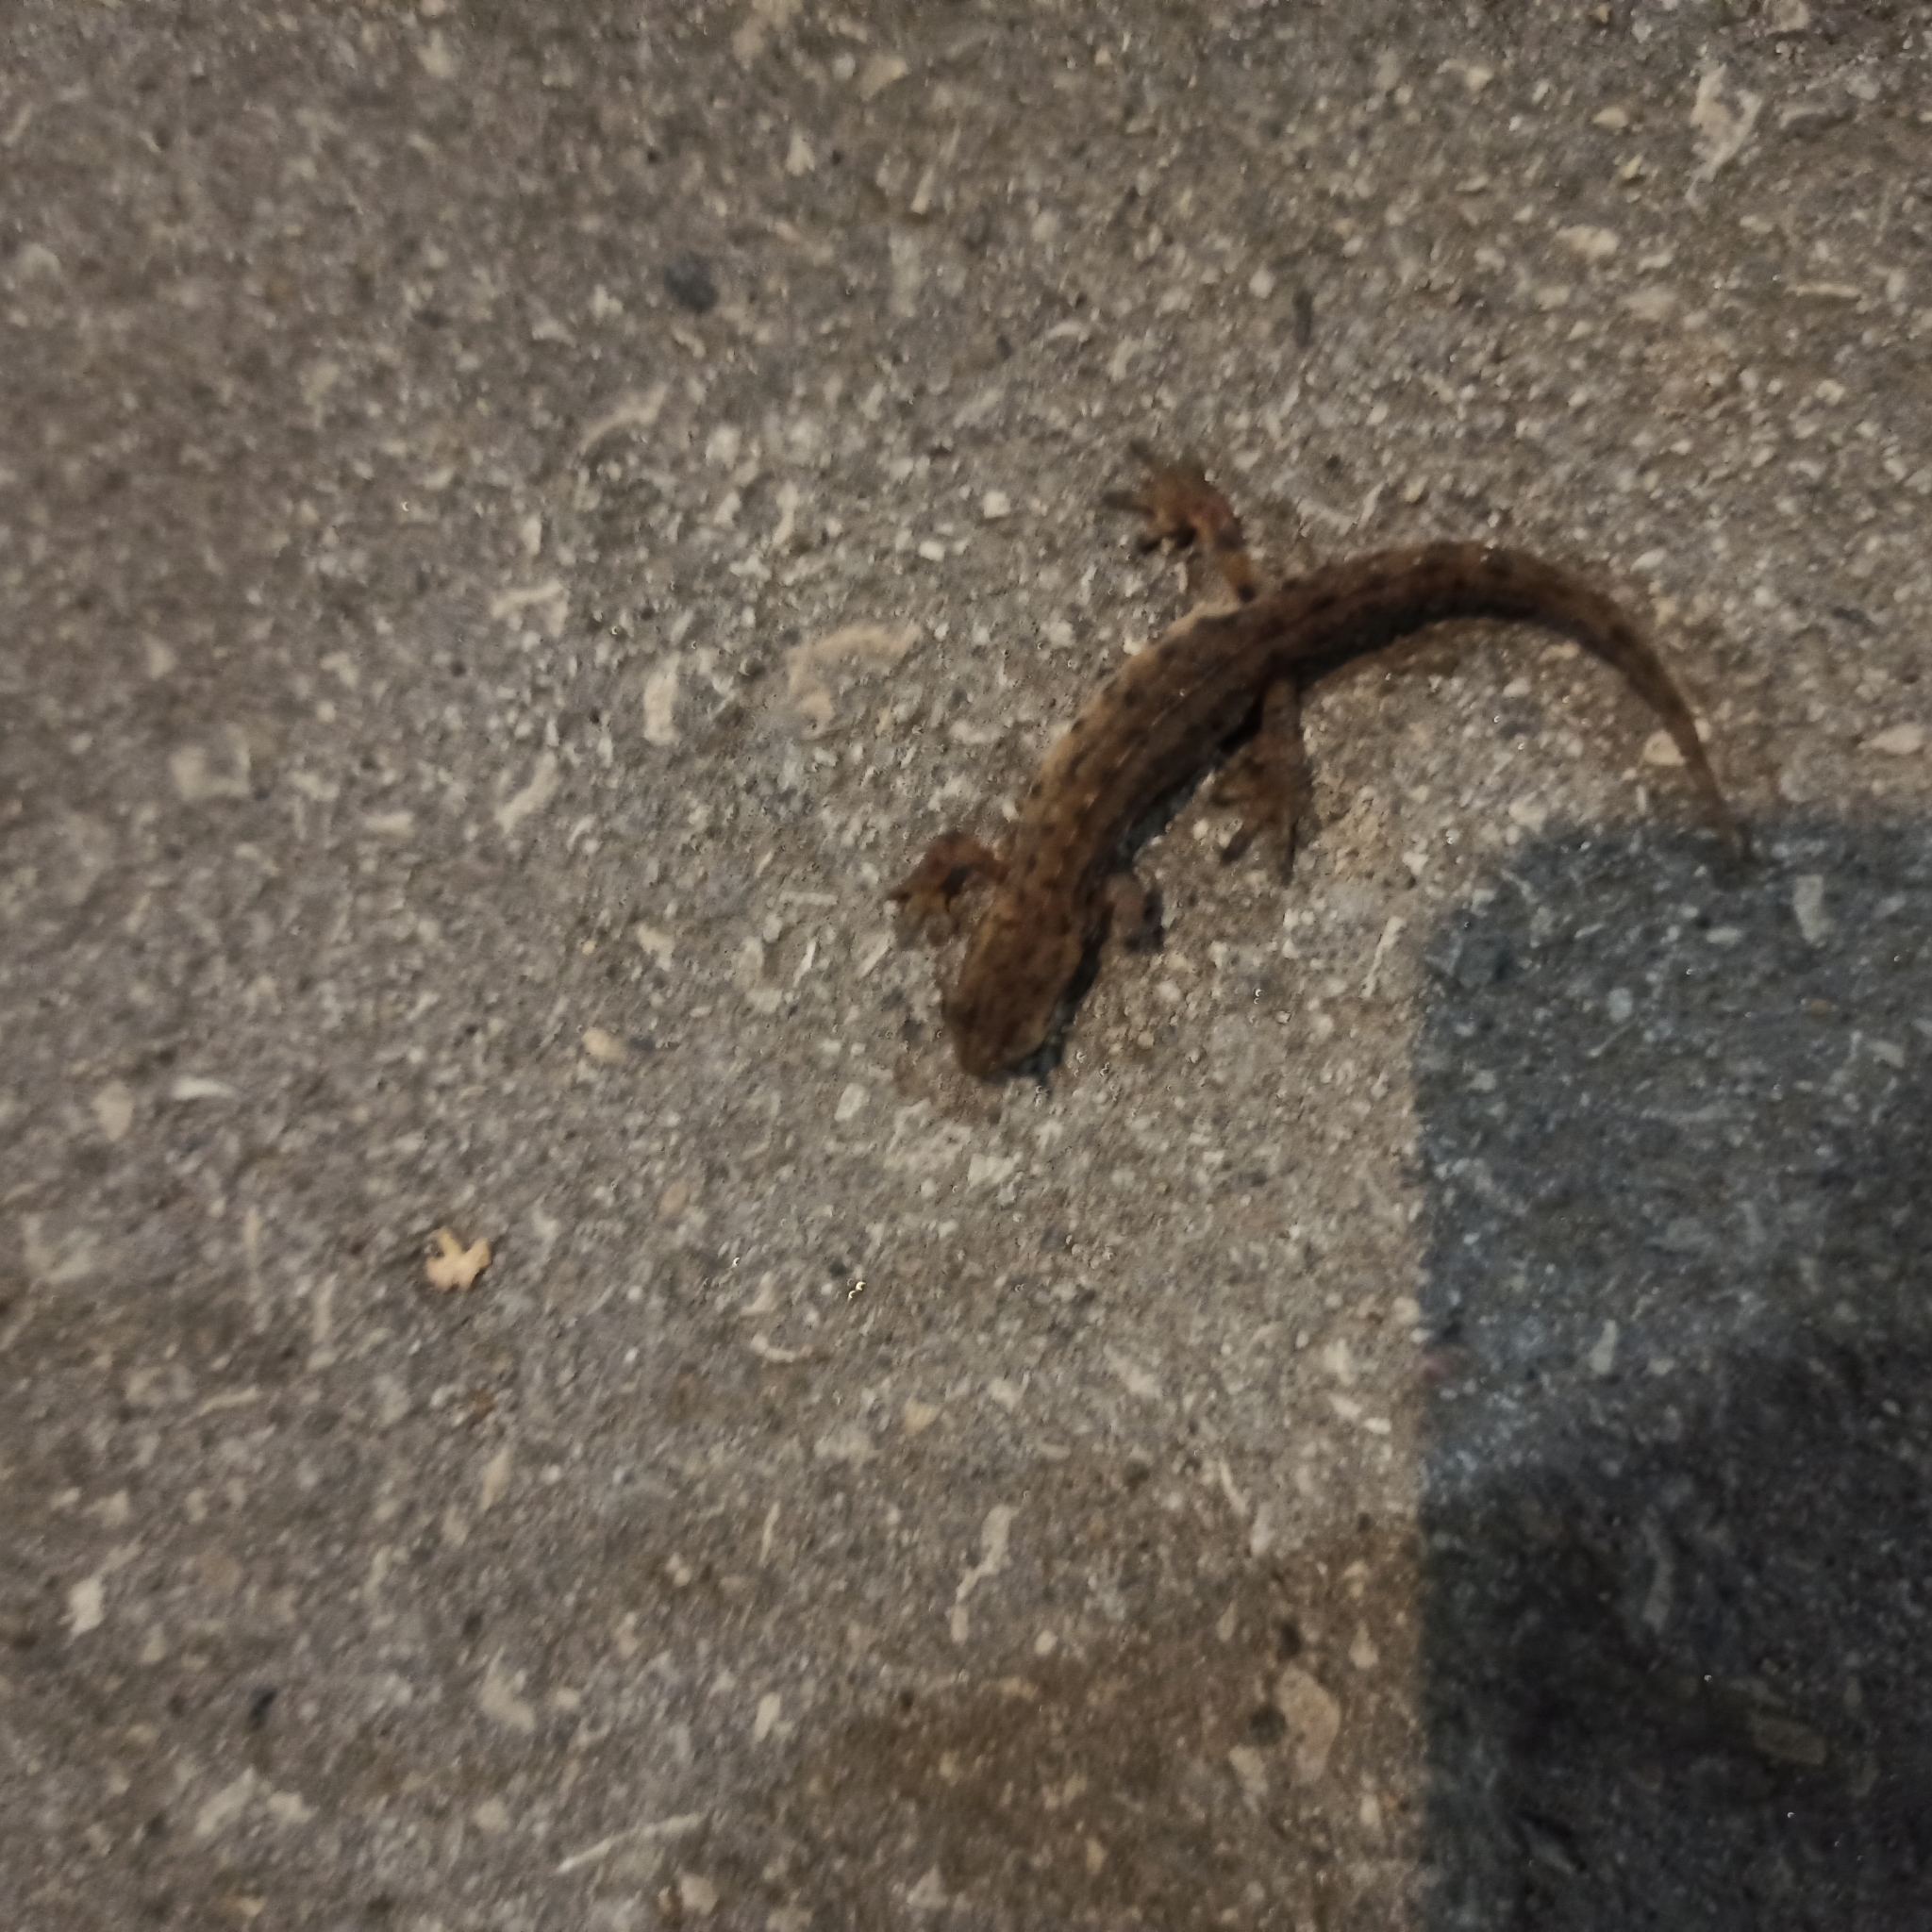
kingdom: Animalia
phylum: Chordata
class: Amphibia
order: Caudata
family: Salamandridae
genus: Lissotriton
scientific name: Lissotriton vulgaris
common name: Smooth newt
